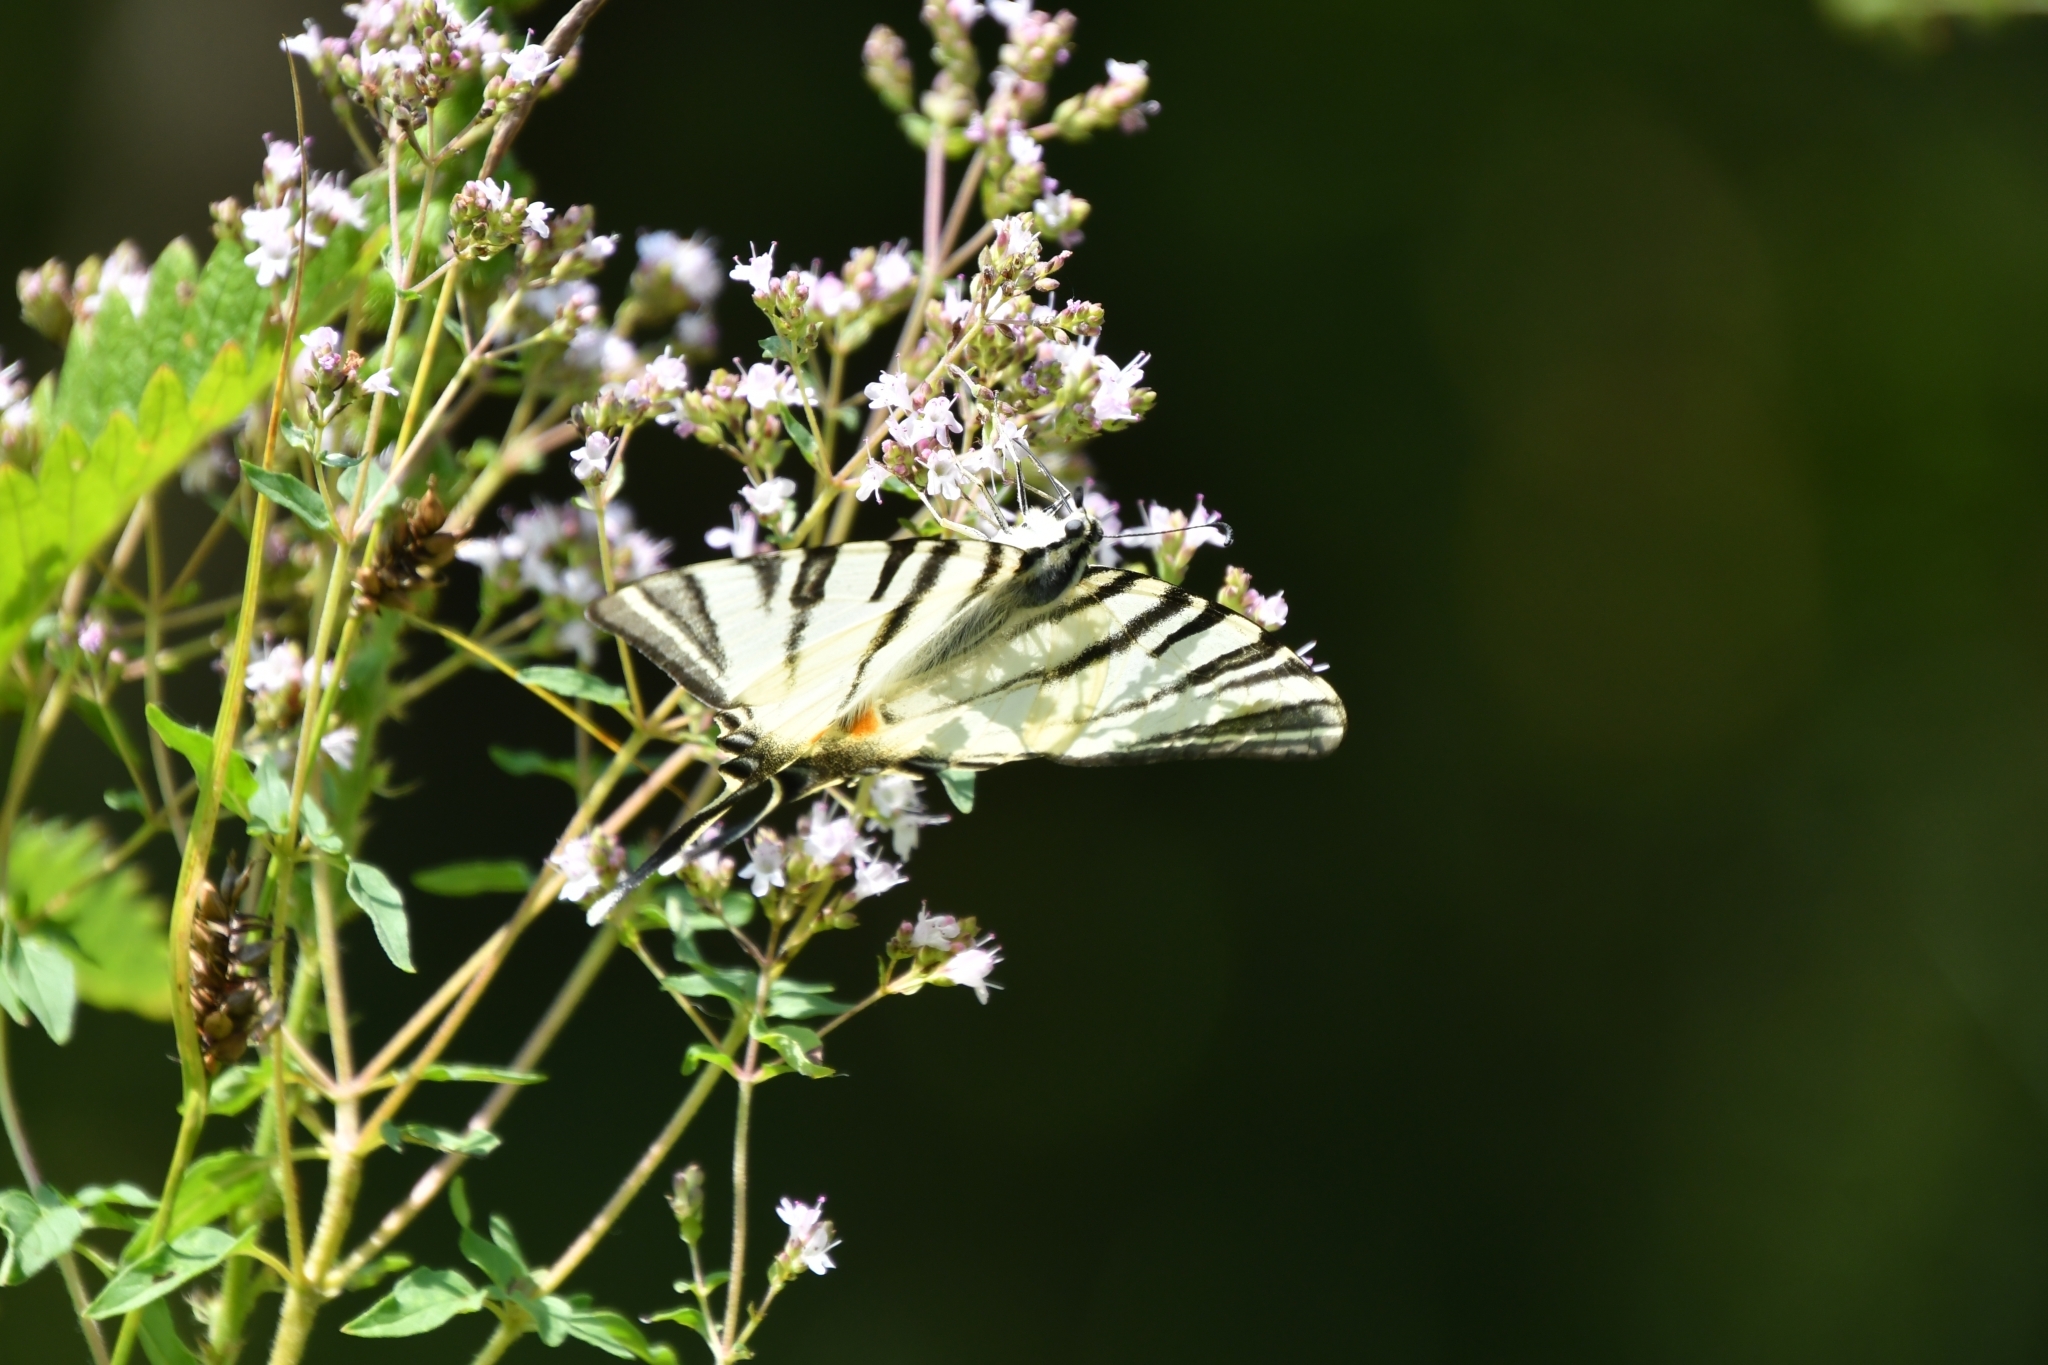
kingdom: Animalia
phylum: Arthropoda
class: Insecta
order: Lepidoptera
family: Papilionidae
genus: Iphiclides
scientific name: Iphiclides podalirius
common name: Scarce swallowtail
